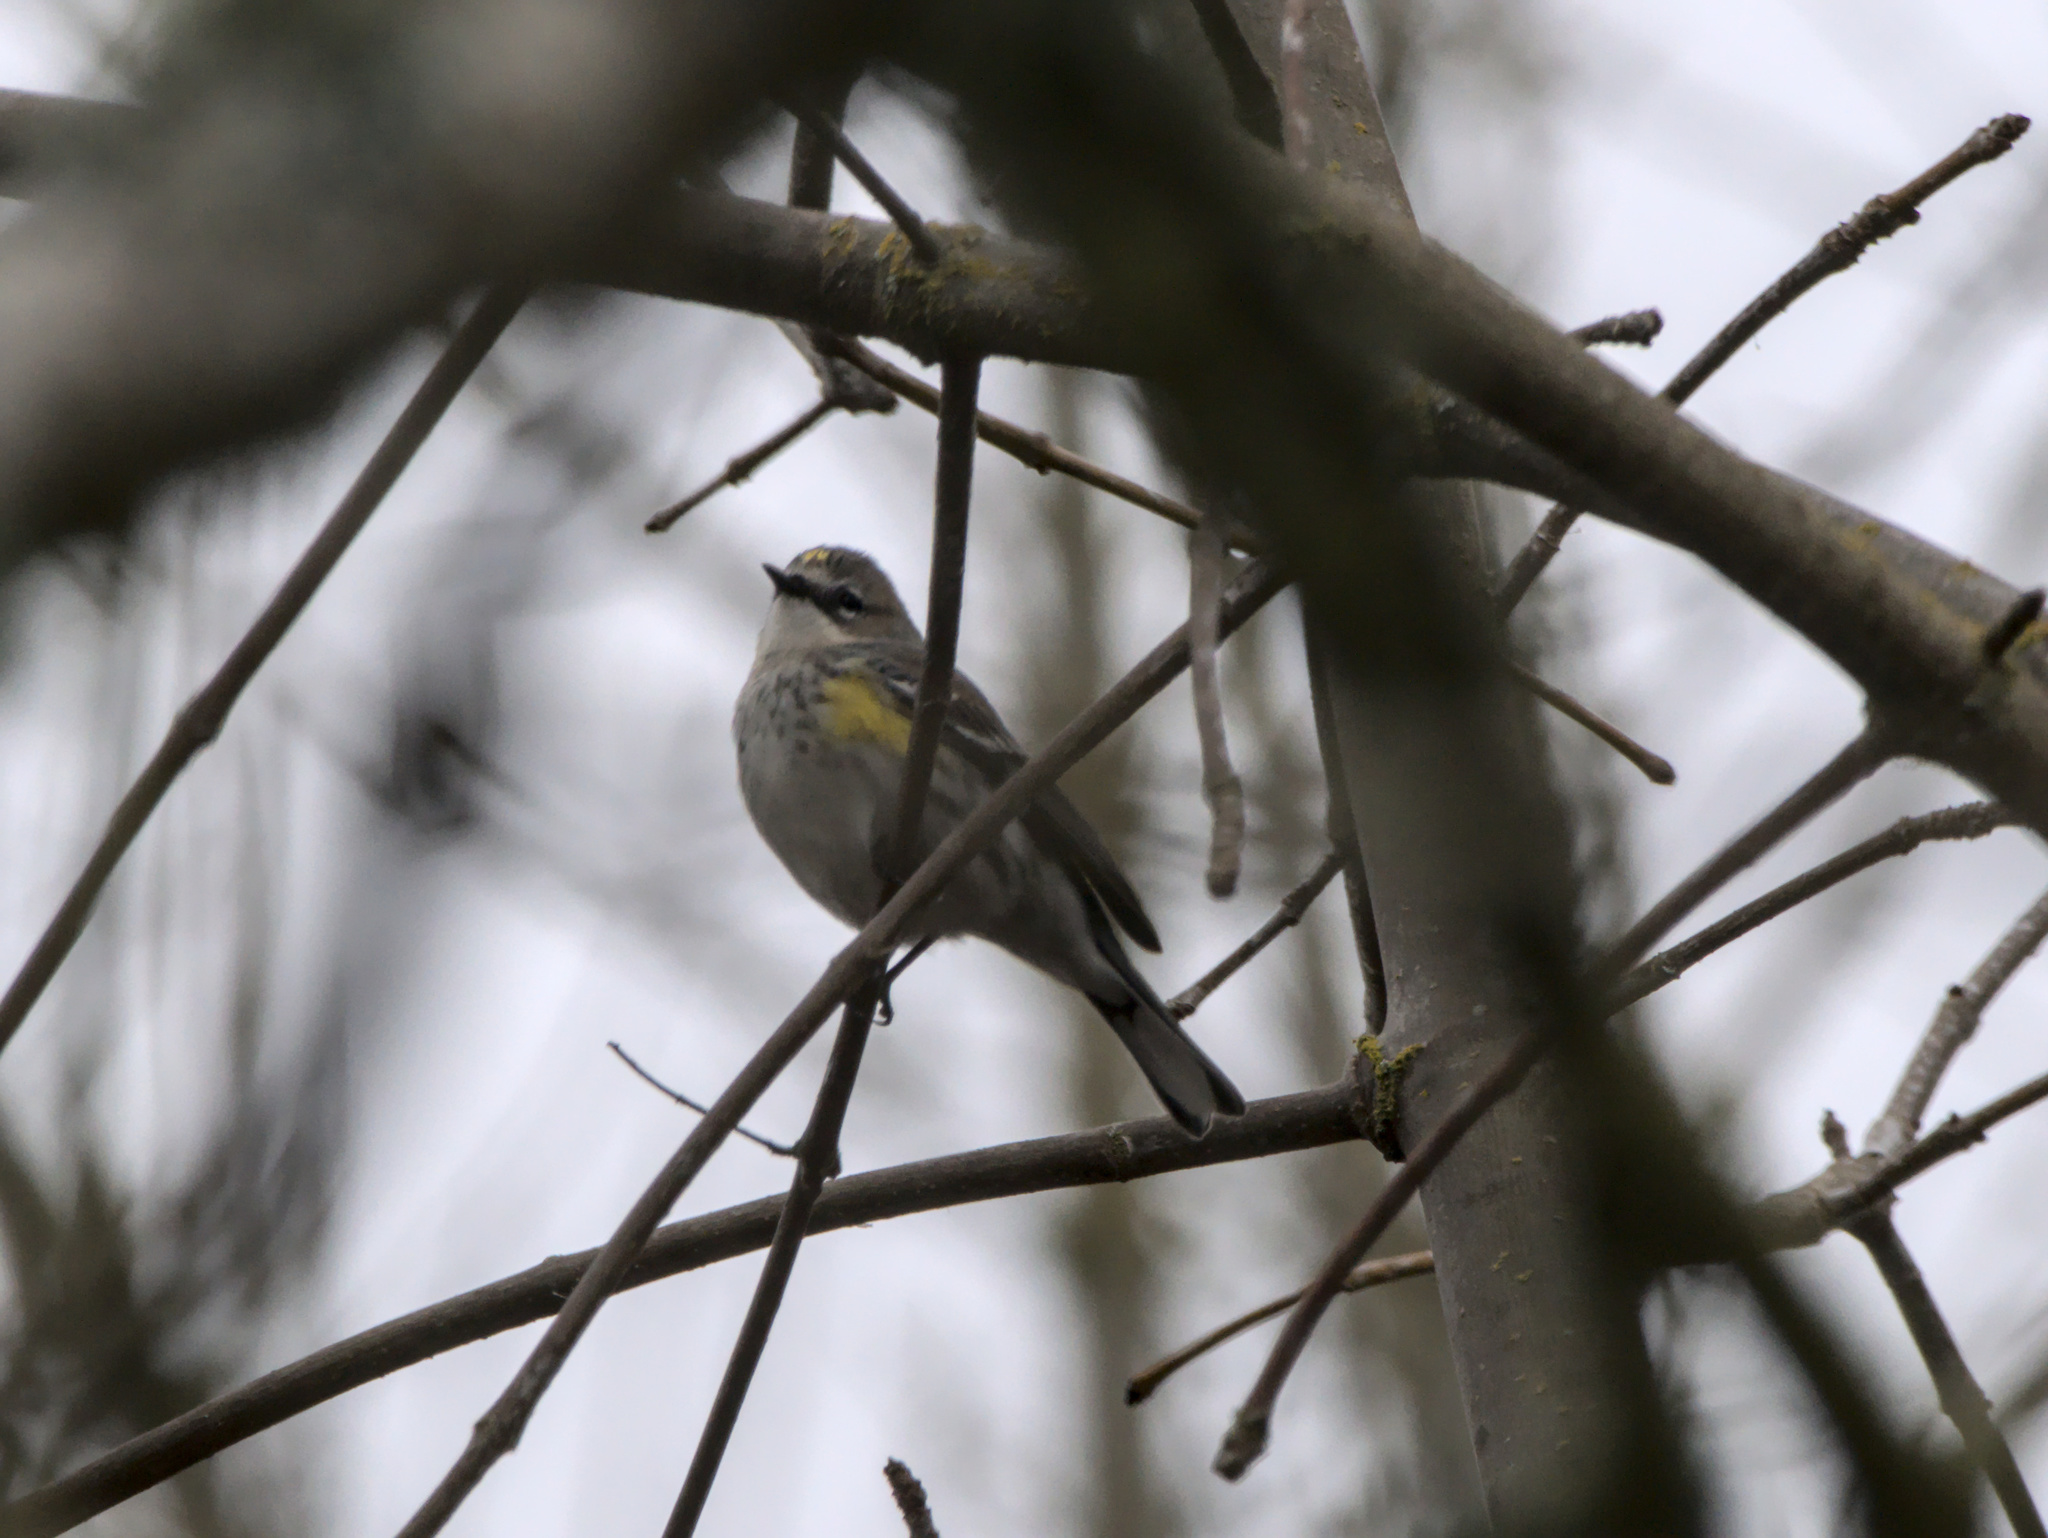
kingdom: Animalia
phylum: Chordata
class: Aves
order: Passeriformes
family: Parulidae
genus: Setophaga
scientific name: Setophaga coronata
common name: Myrtle warbler
